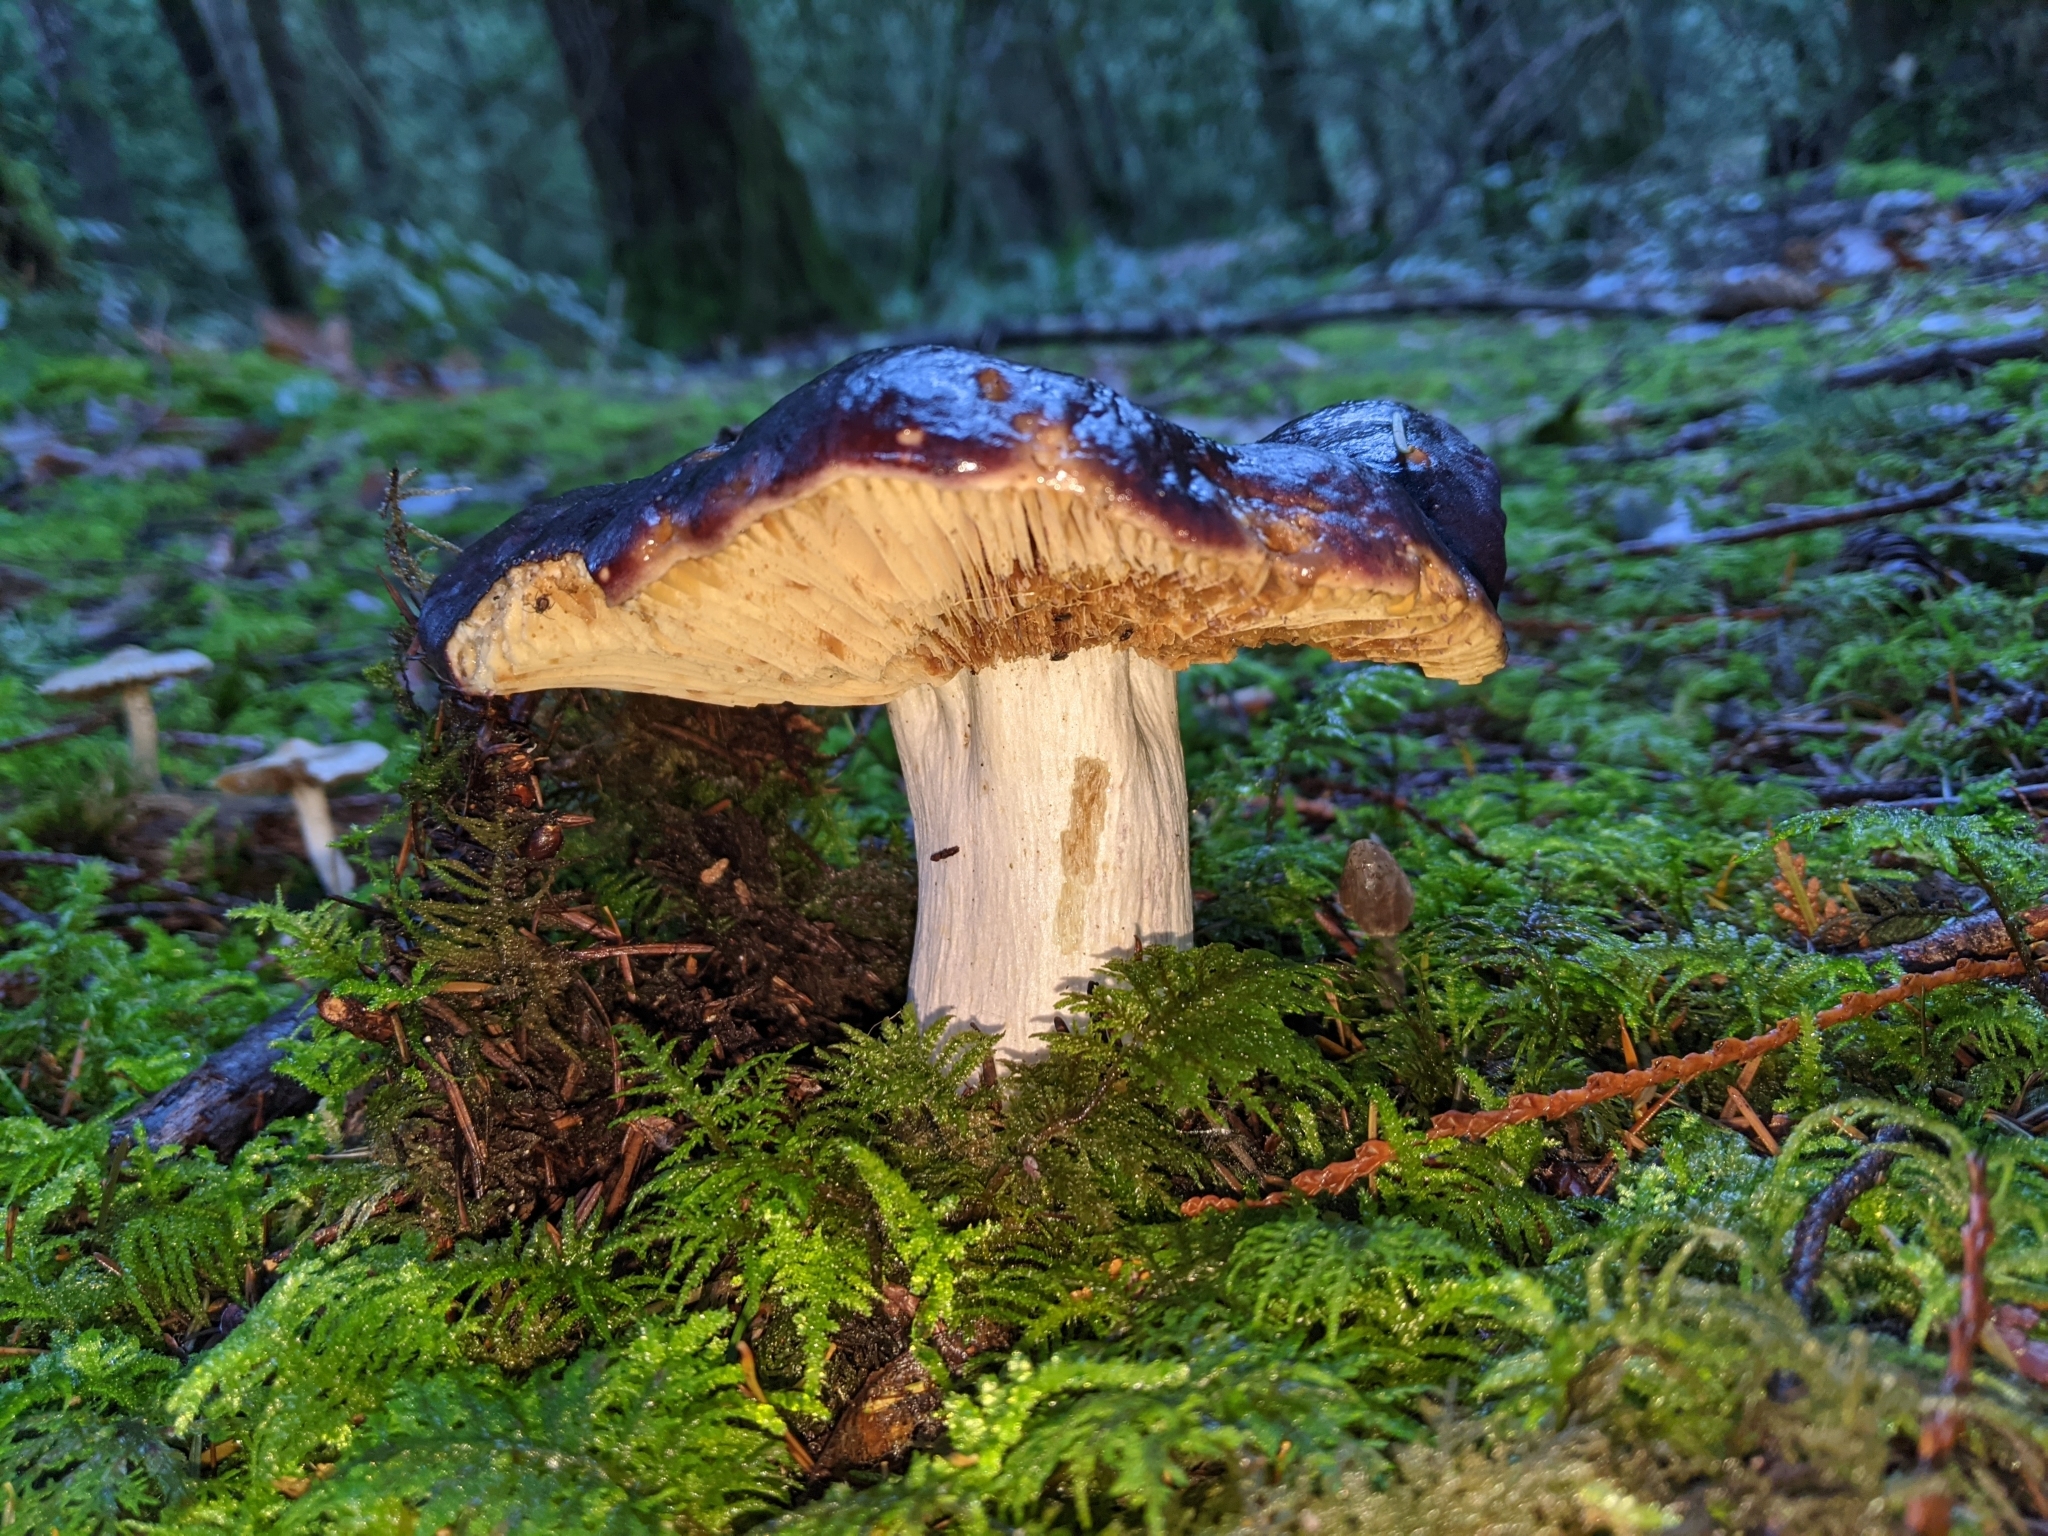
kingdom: Fungi
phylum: Basidiomycota
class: Agaricomycetes
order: Russulales
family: Russulaceae
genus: Russula
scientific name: Russula xerampelina
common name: Crab brittlegill
